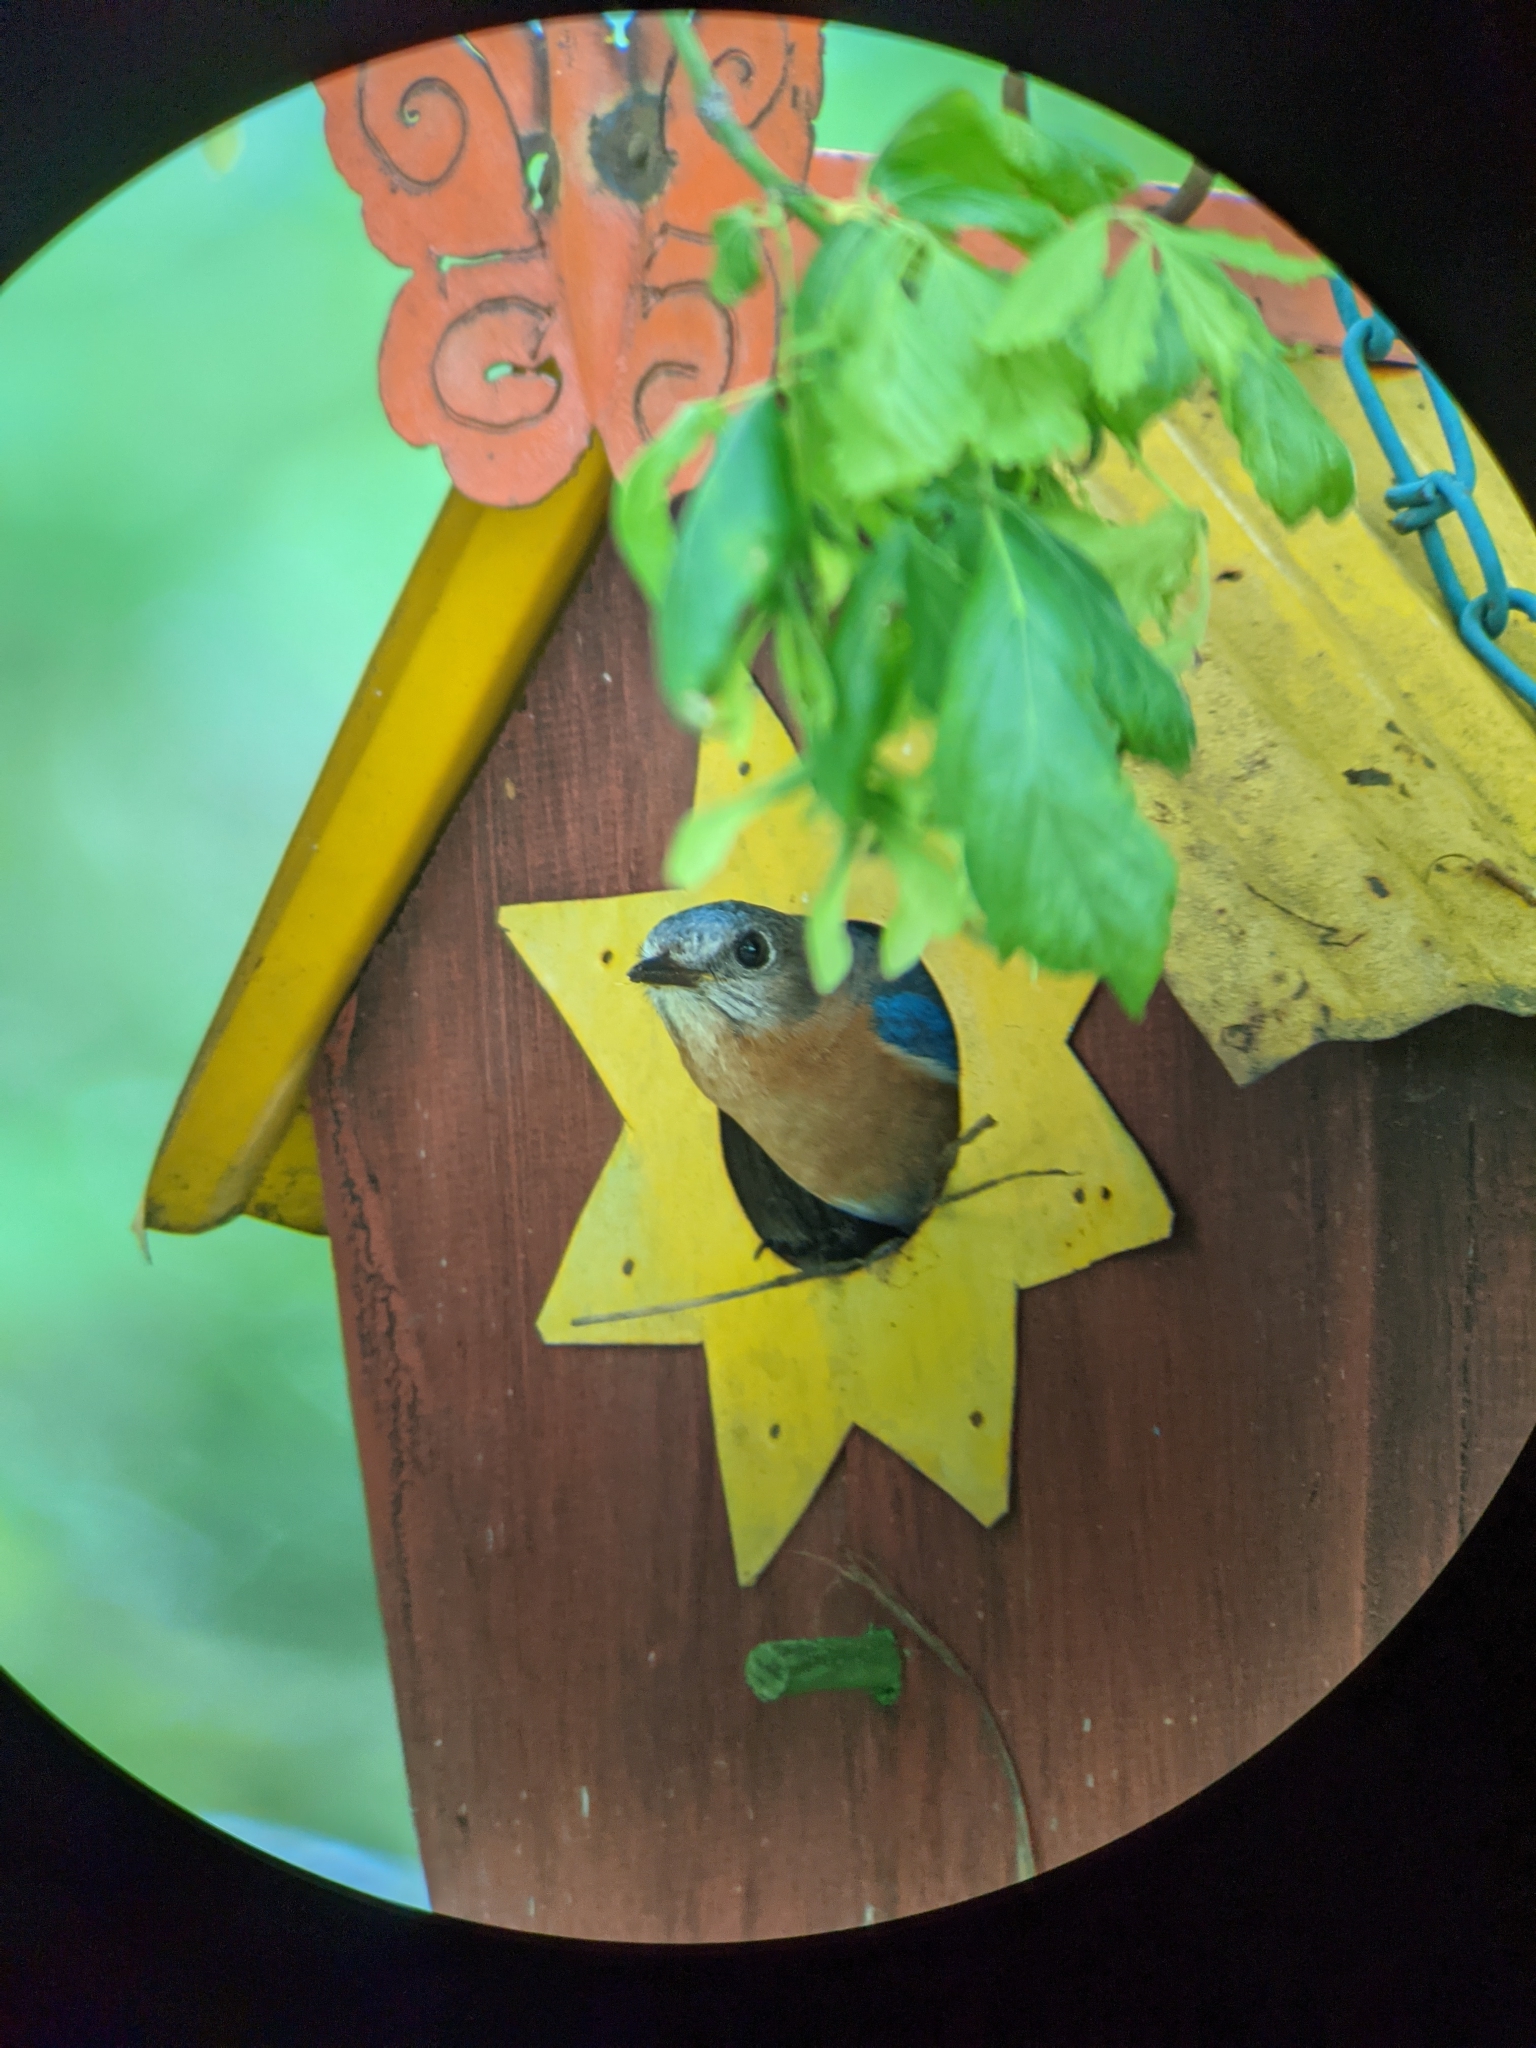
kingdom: Animalia
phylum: Chordata
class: Aves
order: Passeriformes
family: Turdidae
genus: Sialia
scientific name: Sialia sialis
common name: Eastern bluebird
